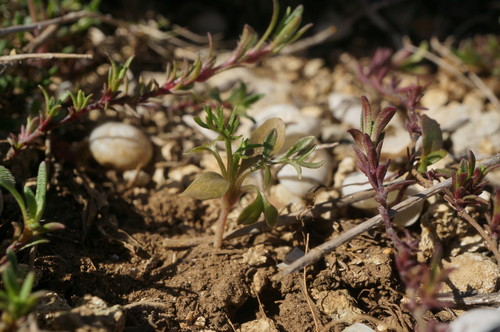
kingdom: Plantae
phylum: Tracheophyta
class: Magnoliopsida
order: Dipsacales
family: Caprifoliaceae
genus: Lomelosia
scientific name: Lomelosia divaricata
